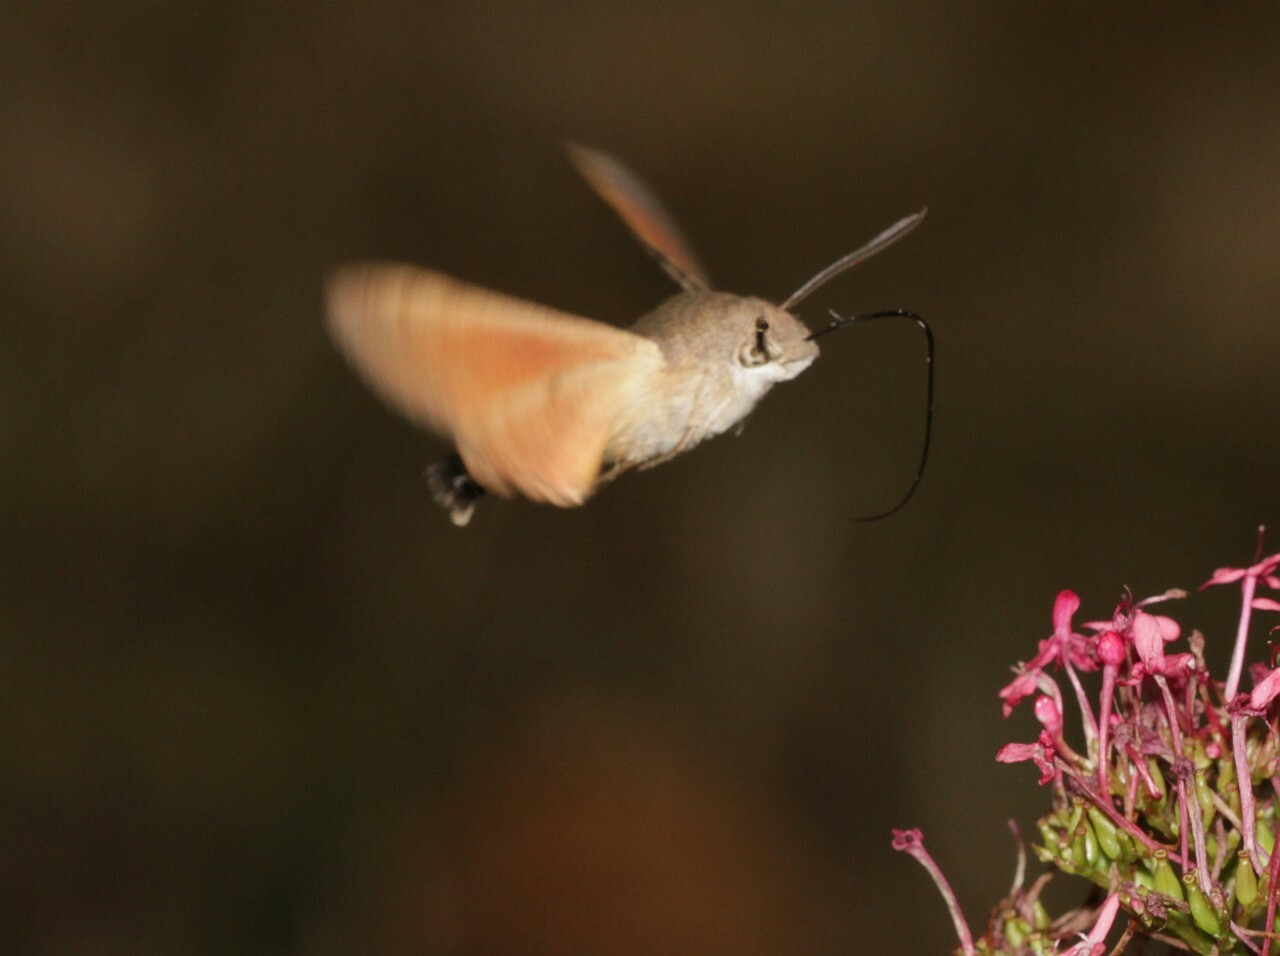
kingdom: Animalia
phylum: Arthropoda
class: Insecta
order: Lepidoptera
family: Sphingidae
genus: Macroglossum
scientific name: Macroglossum stellatarum
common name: Humming-bird hawk-moth
